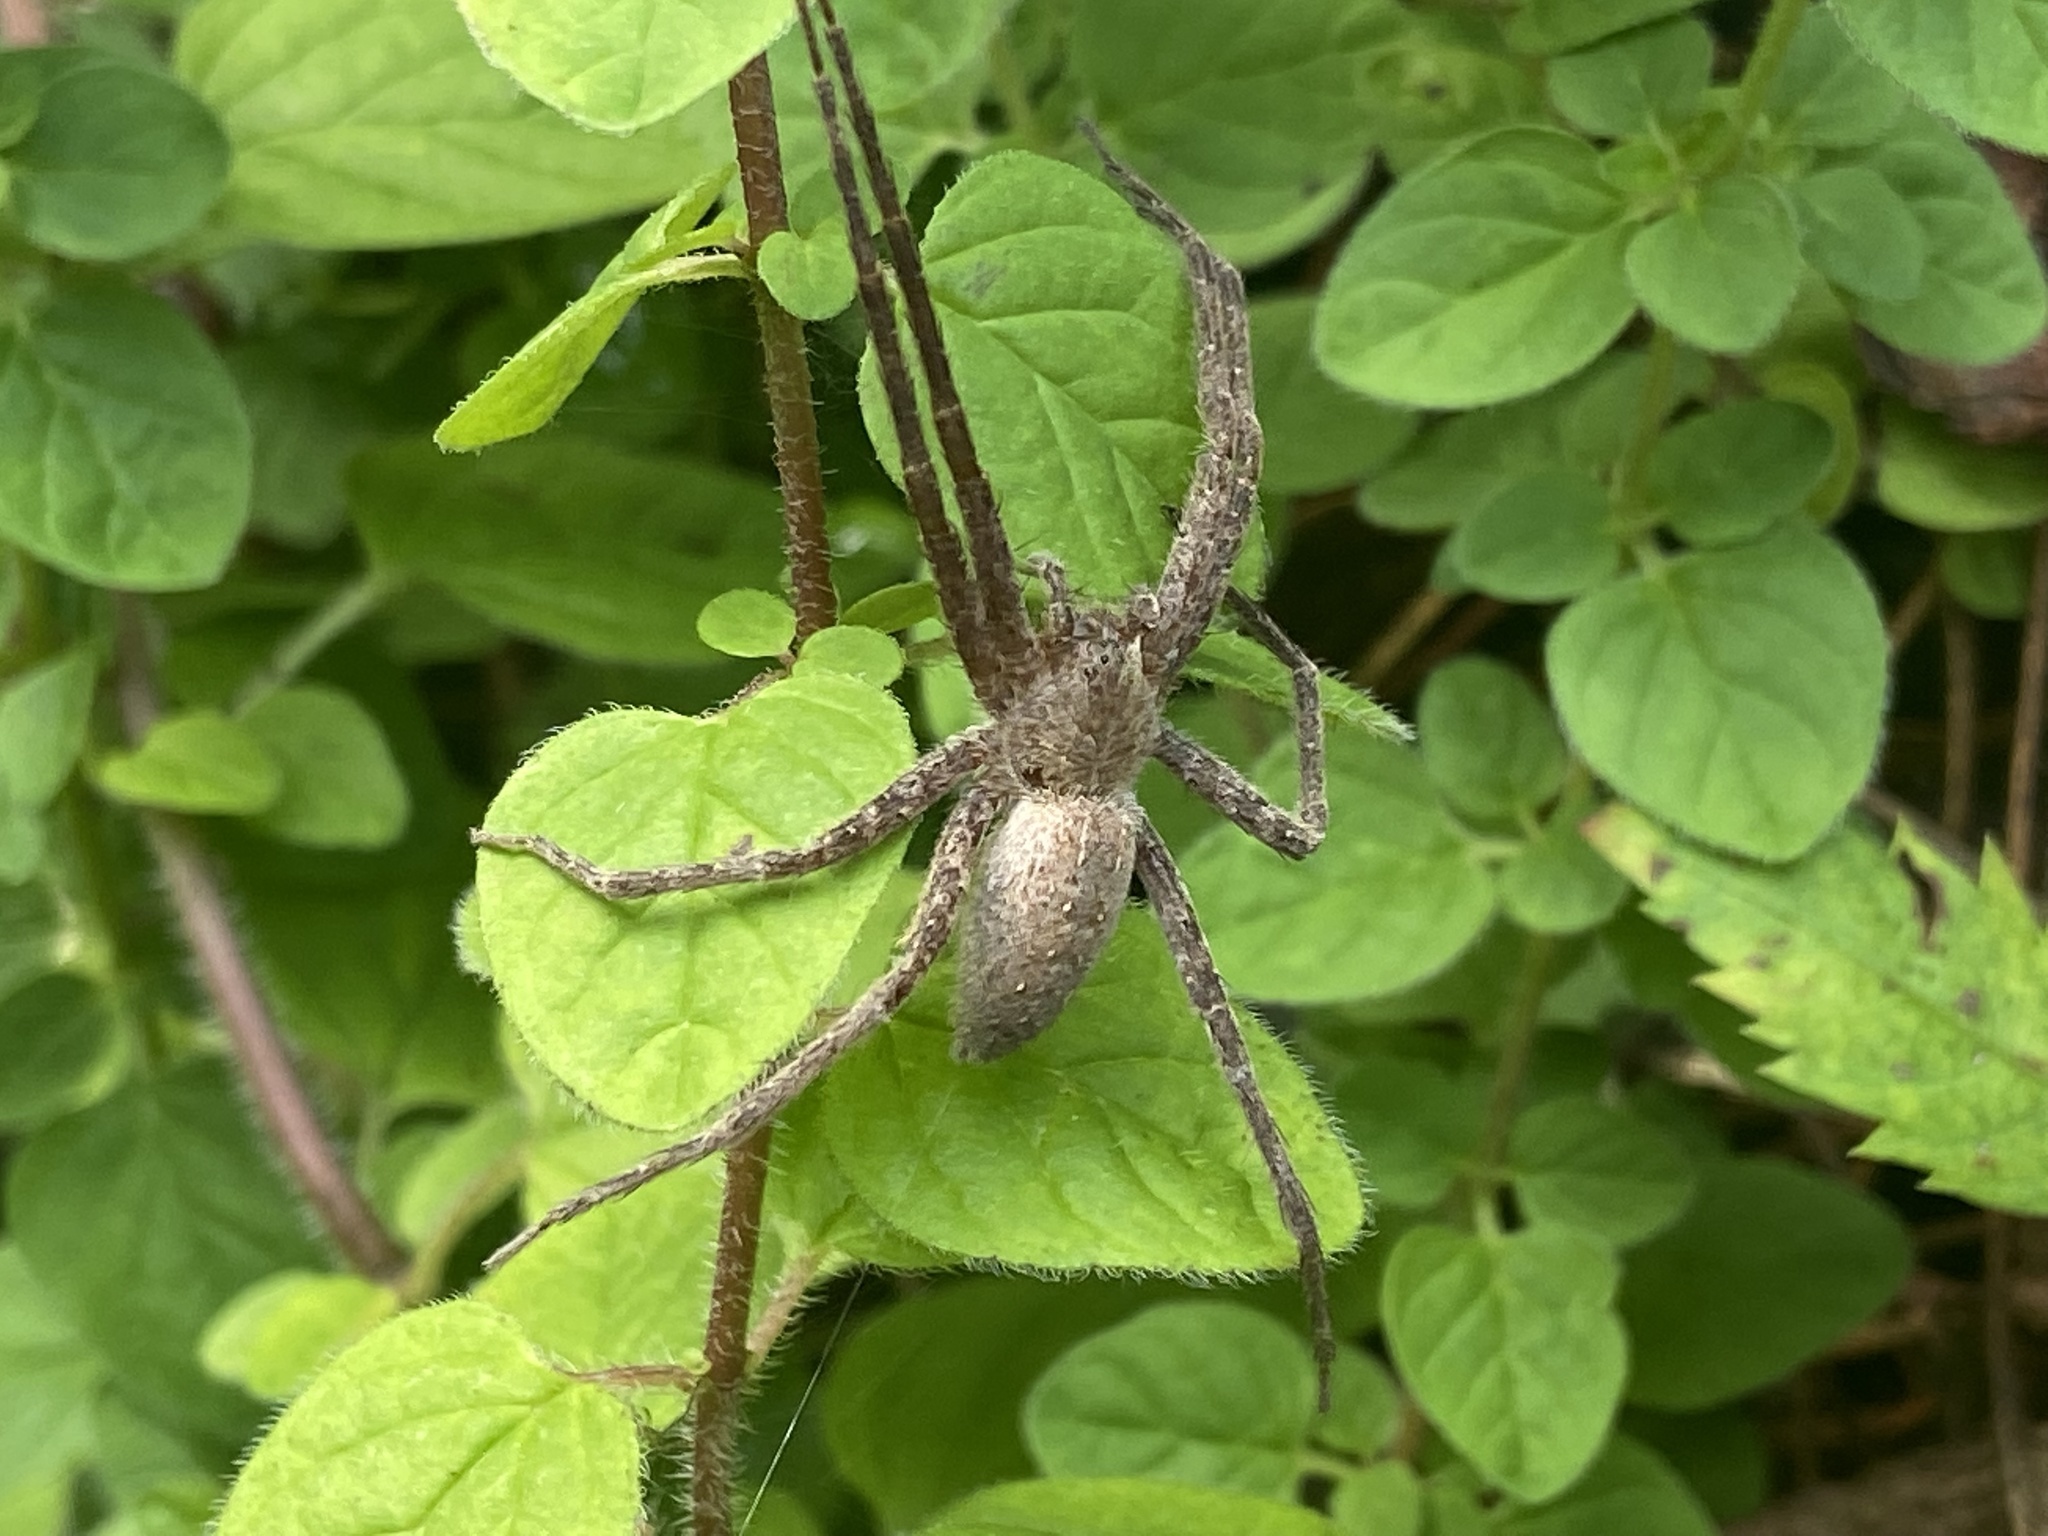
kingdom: Animalia
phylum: Arthropoda
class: Arachnida
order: Araneae
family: Pisauridae
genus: Pisaurina
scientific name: Pisaurina mira
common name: American nursery web spider
